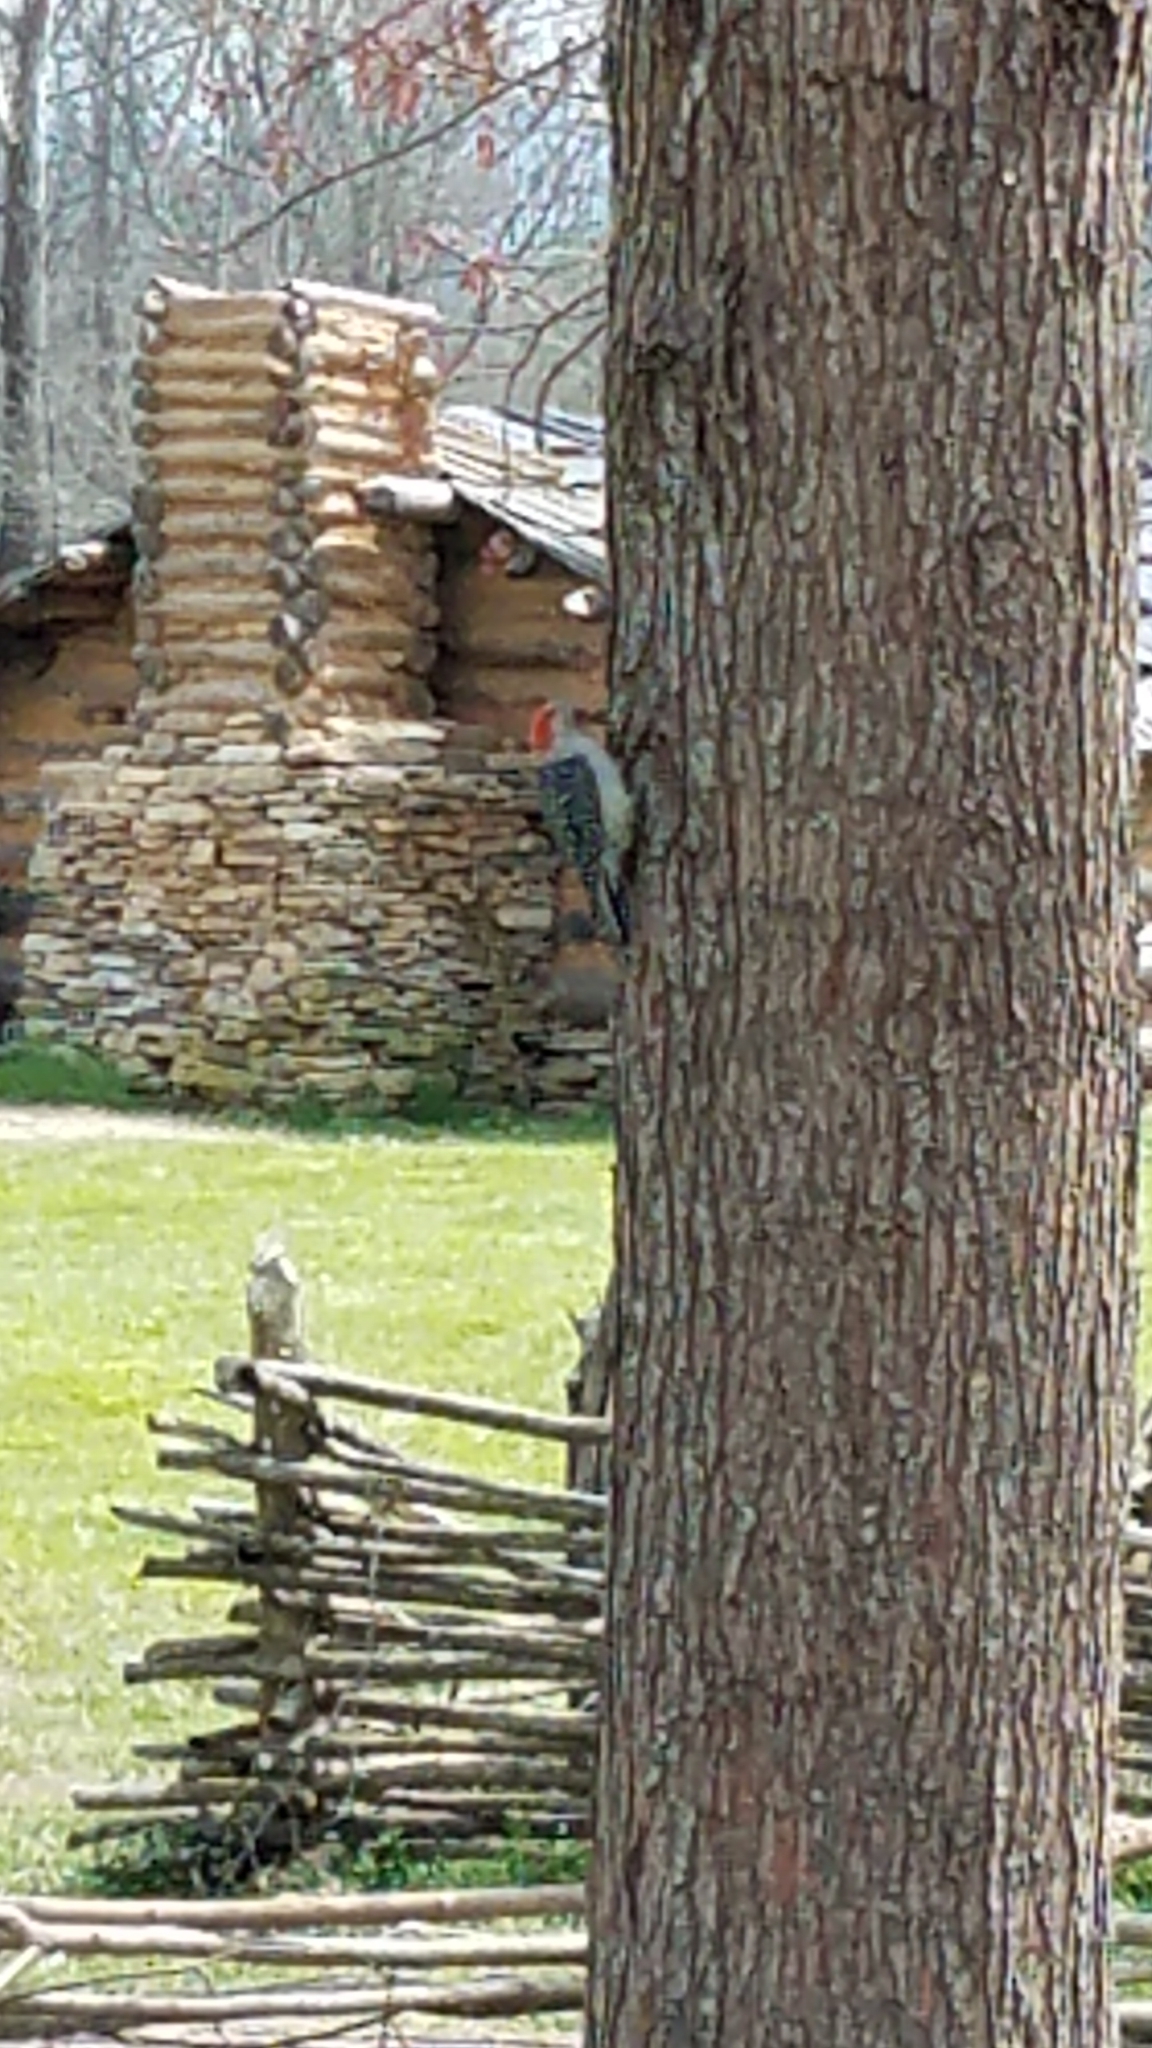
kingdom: Animalia
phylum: Chordata
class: Aves
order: Piciformes
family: Picidae
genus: Melanerpes
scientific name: Melanerpes carolinus
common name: Red-bellied woodpecker
